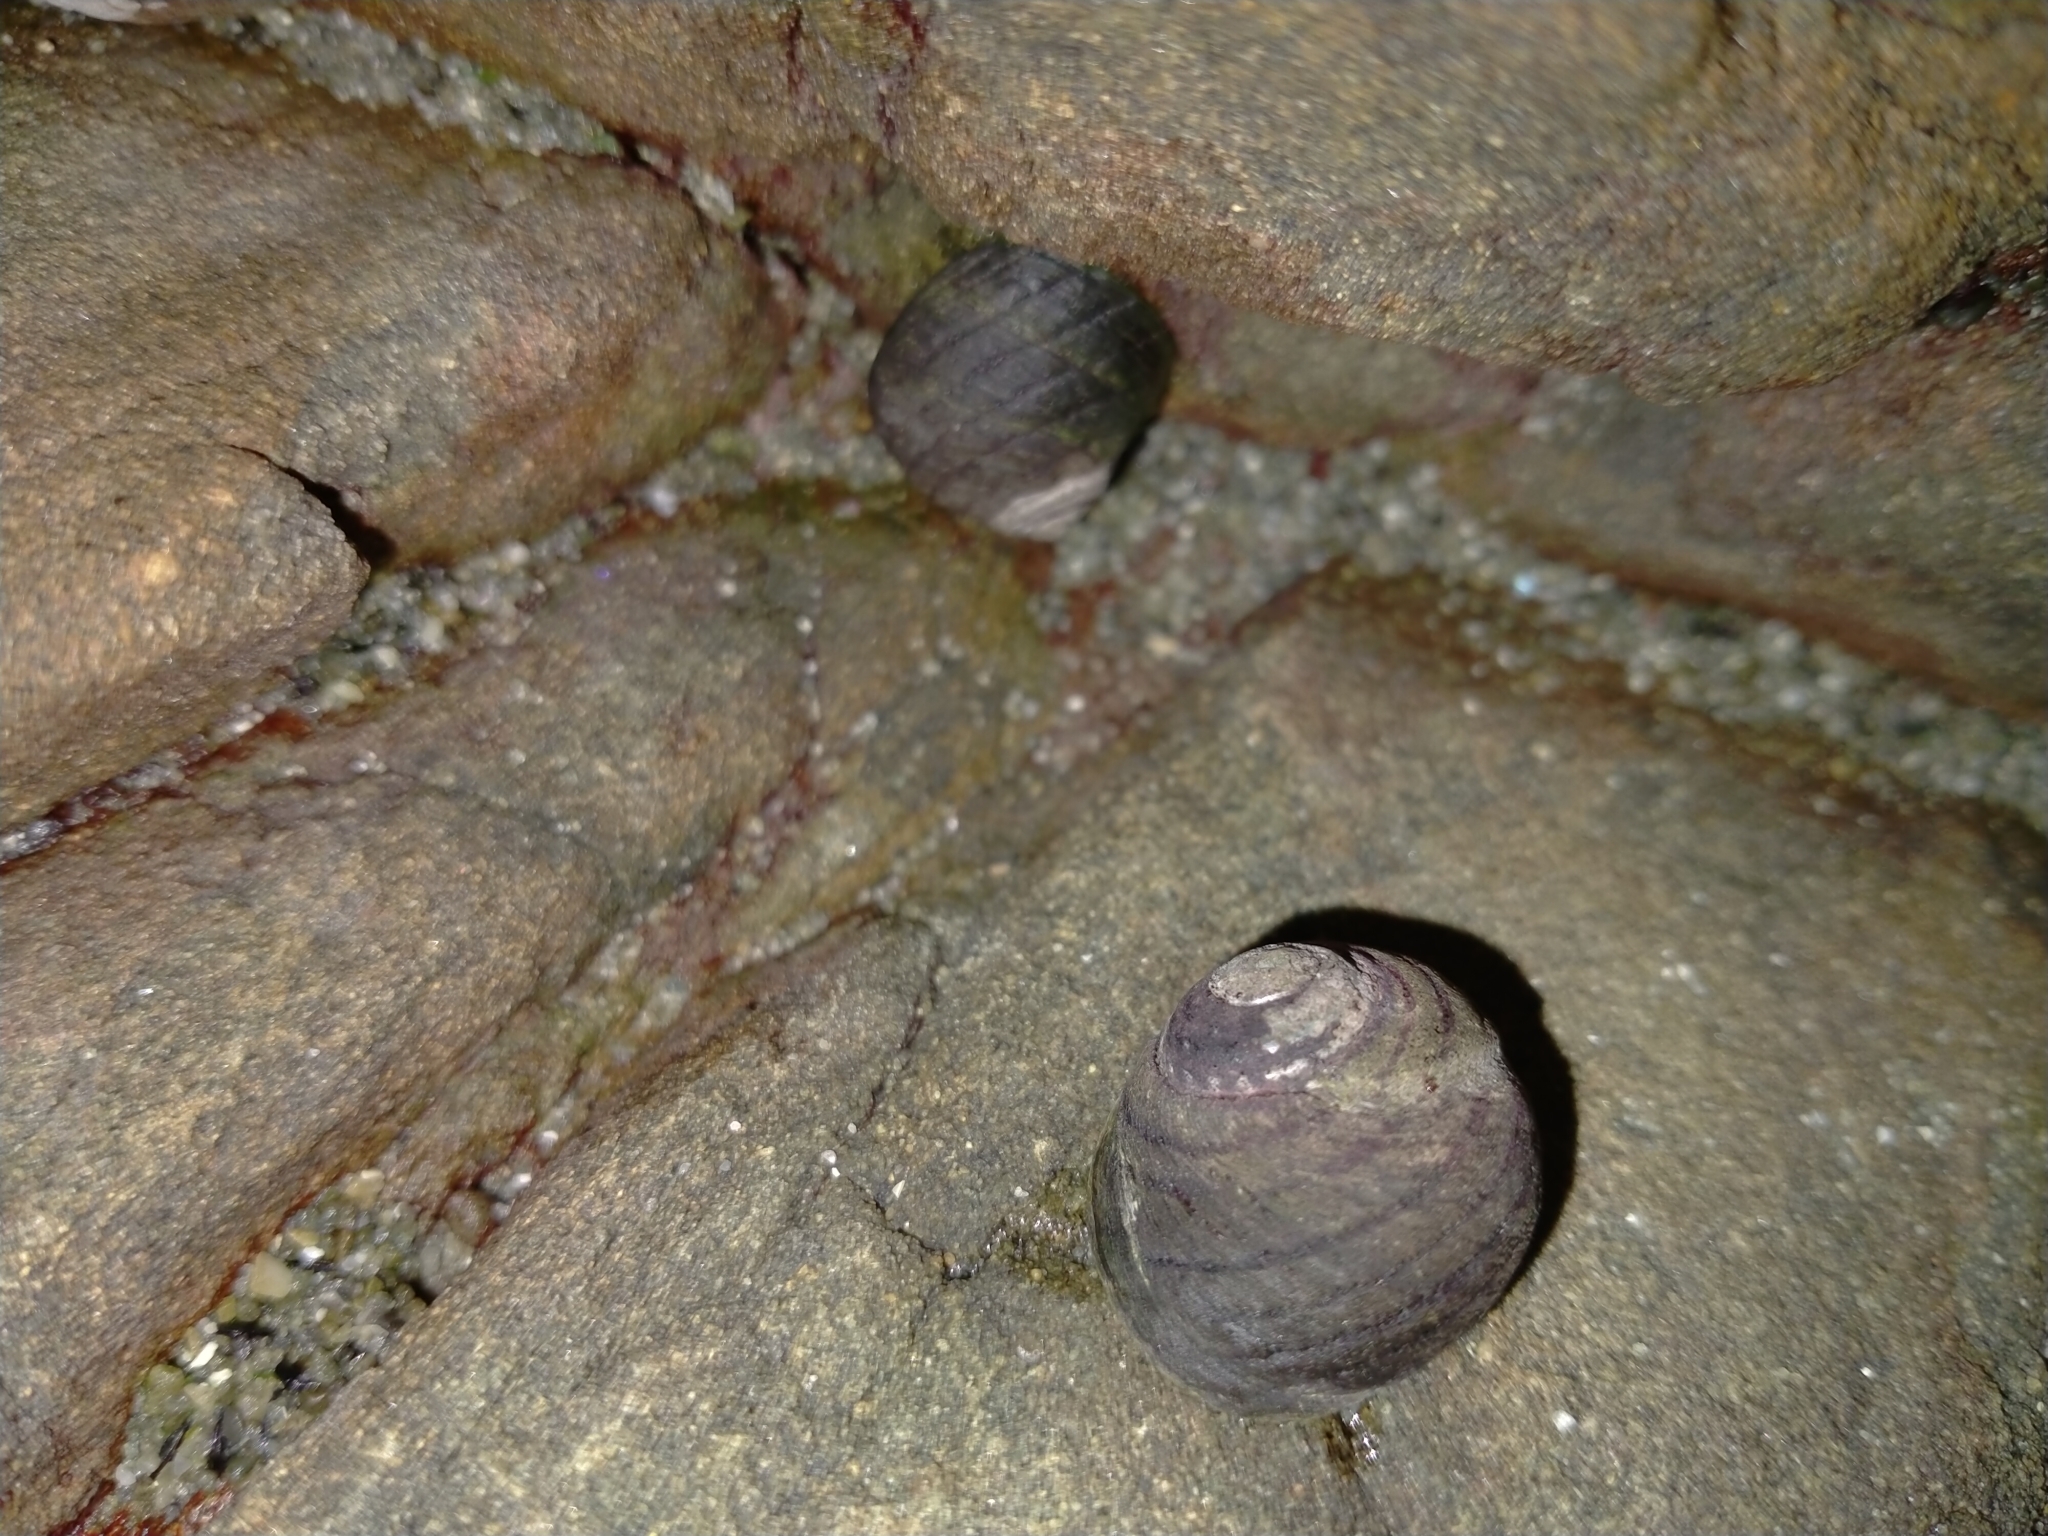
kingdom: Animalia
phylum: Mollusca
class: Gastropoda
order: Trochida
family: Trochidae
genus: Diloma
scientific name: Diloma aethiops
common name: Scorched monodont
